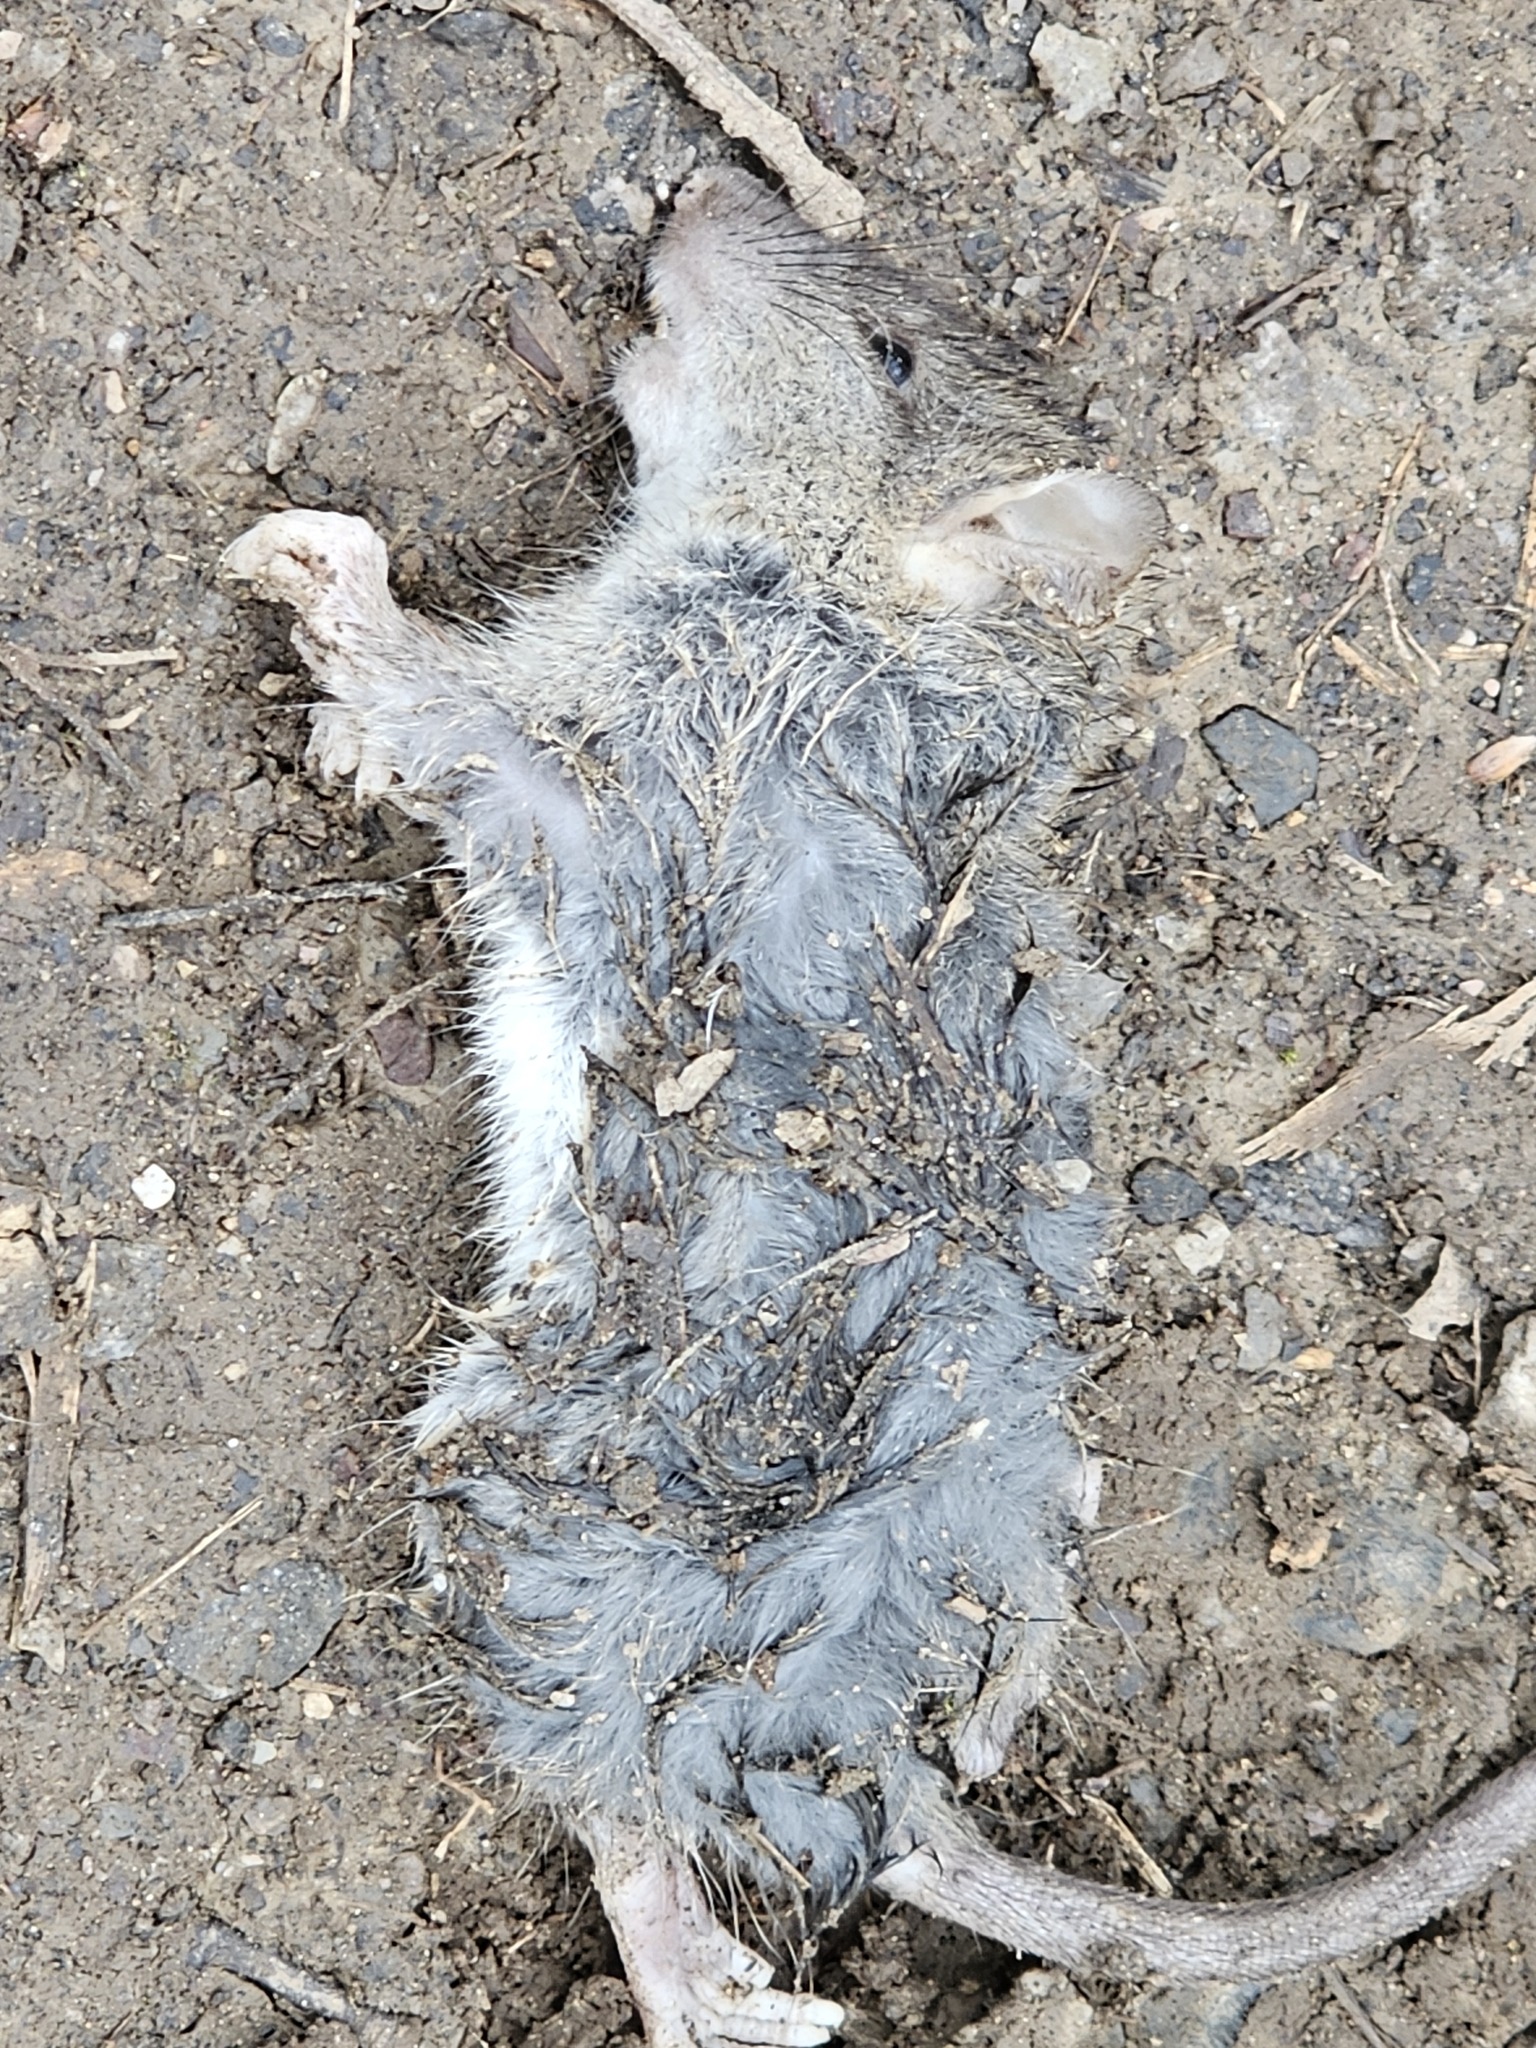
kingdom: Animalia
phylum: Chordata
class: Mammalia
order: Rodentia
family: Muridae
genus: Rattus
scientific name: Rattus norvegicus
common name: Brown rat
